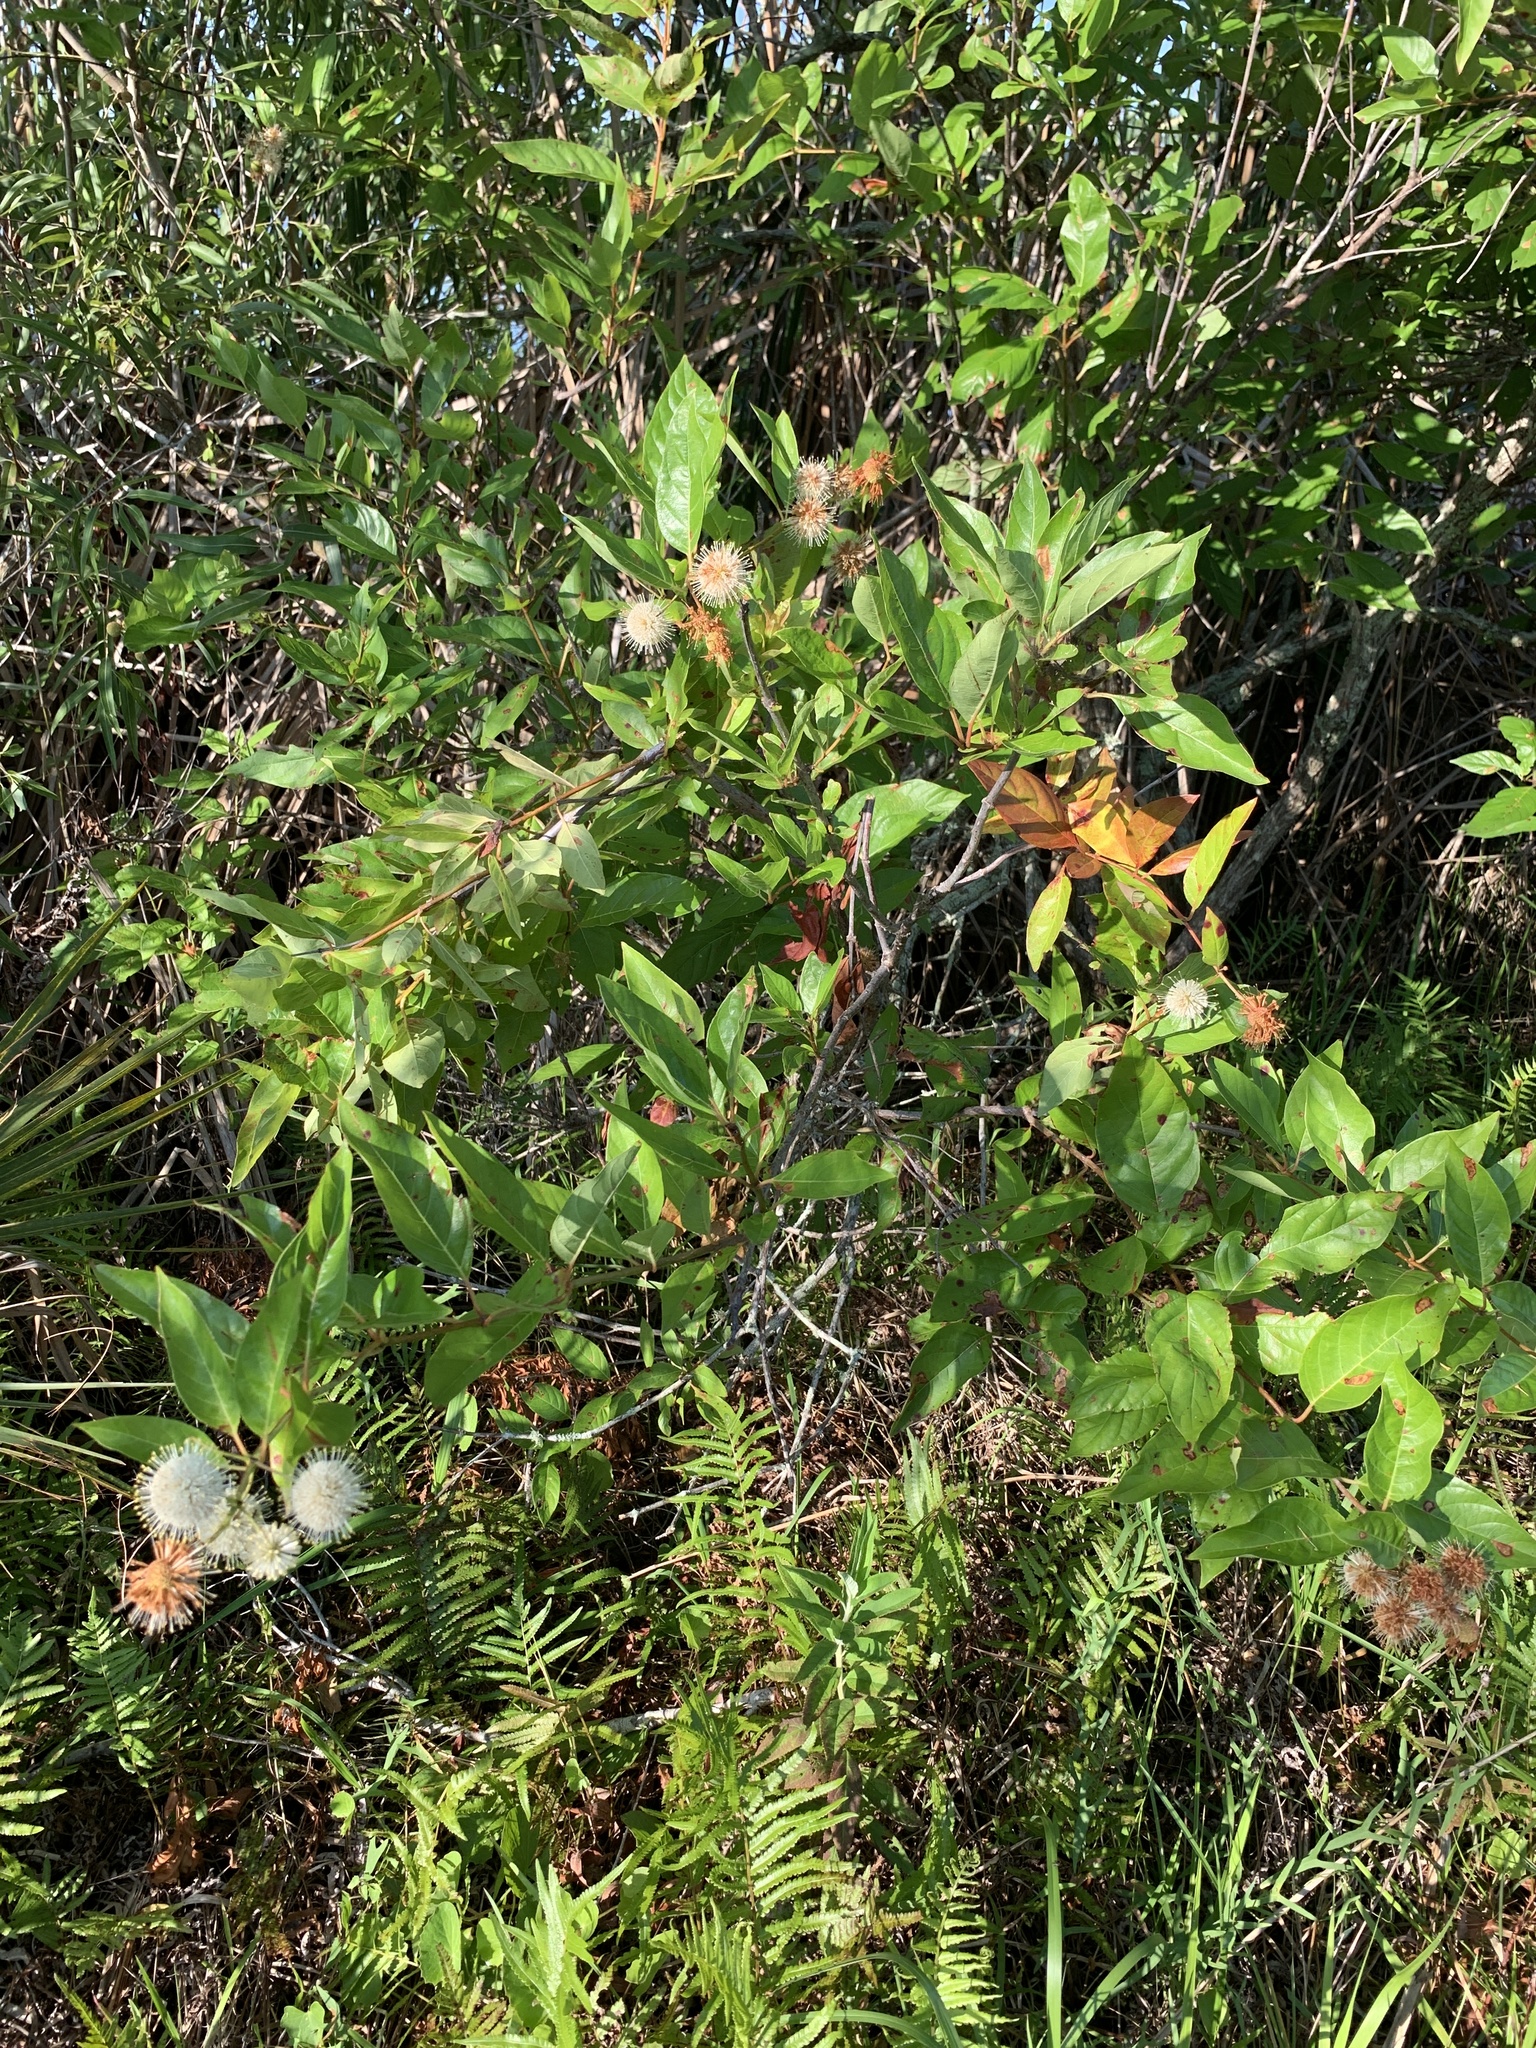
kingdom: Plantae
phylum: Tracheophyta
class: Magnoliopsida
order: Gentianales
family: Rubiaceae
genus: Cephalanthus
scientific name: Cephalanthus occidentalis
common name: Button-willow
